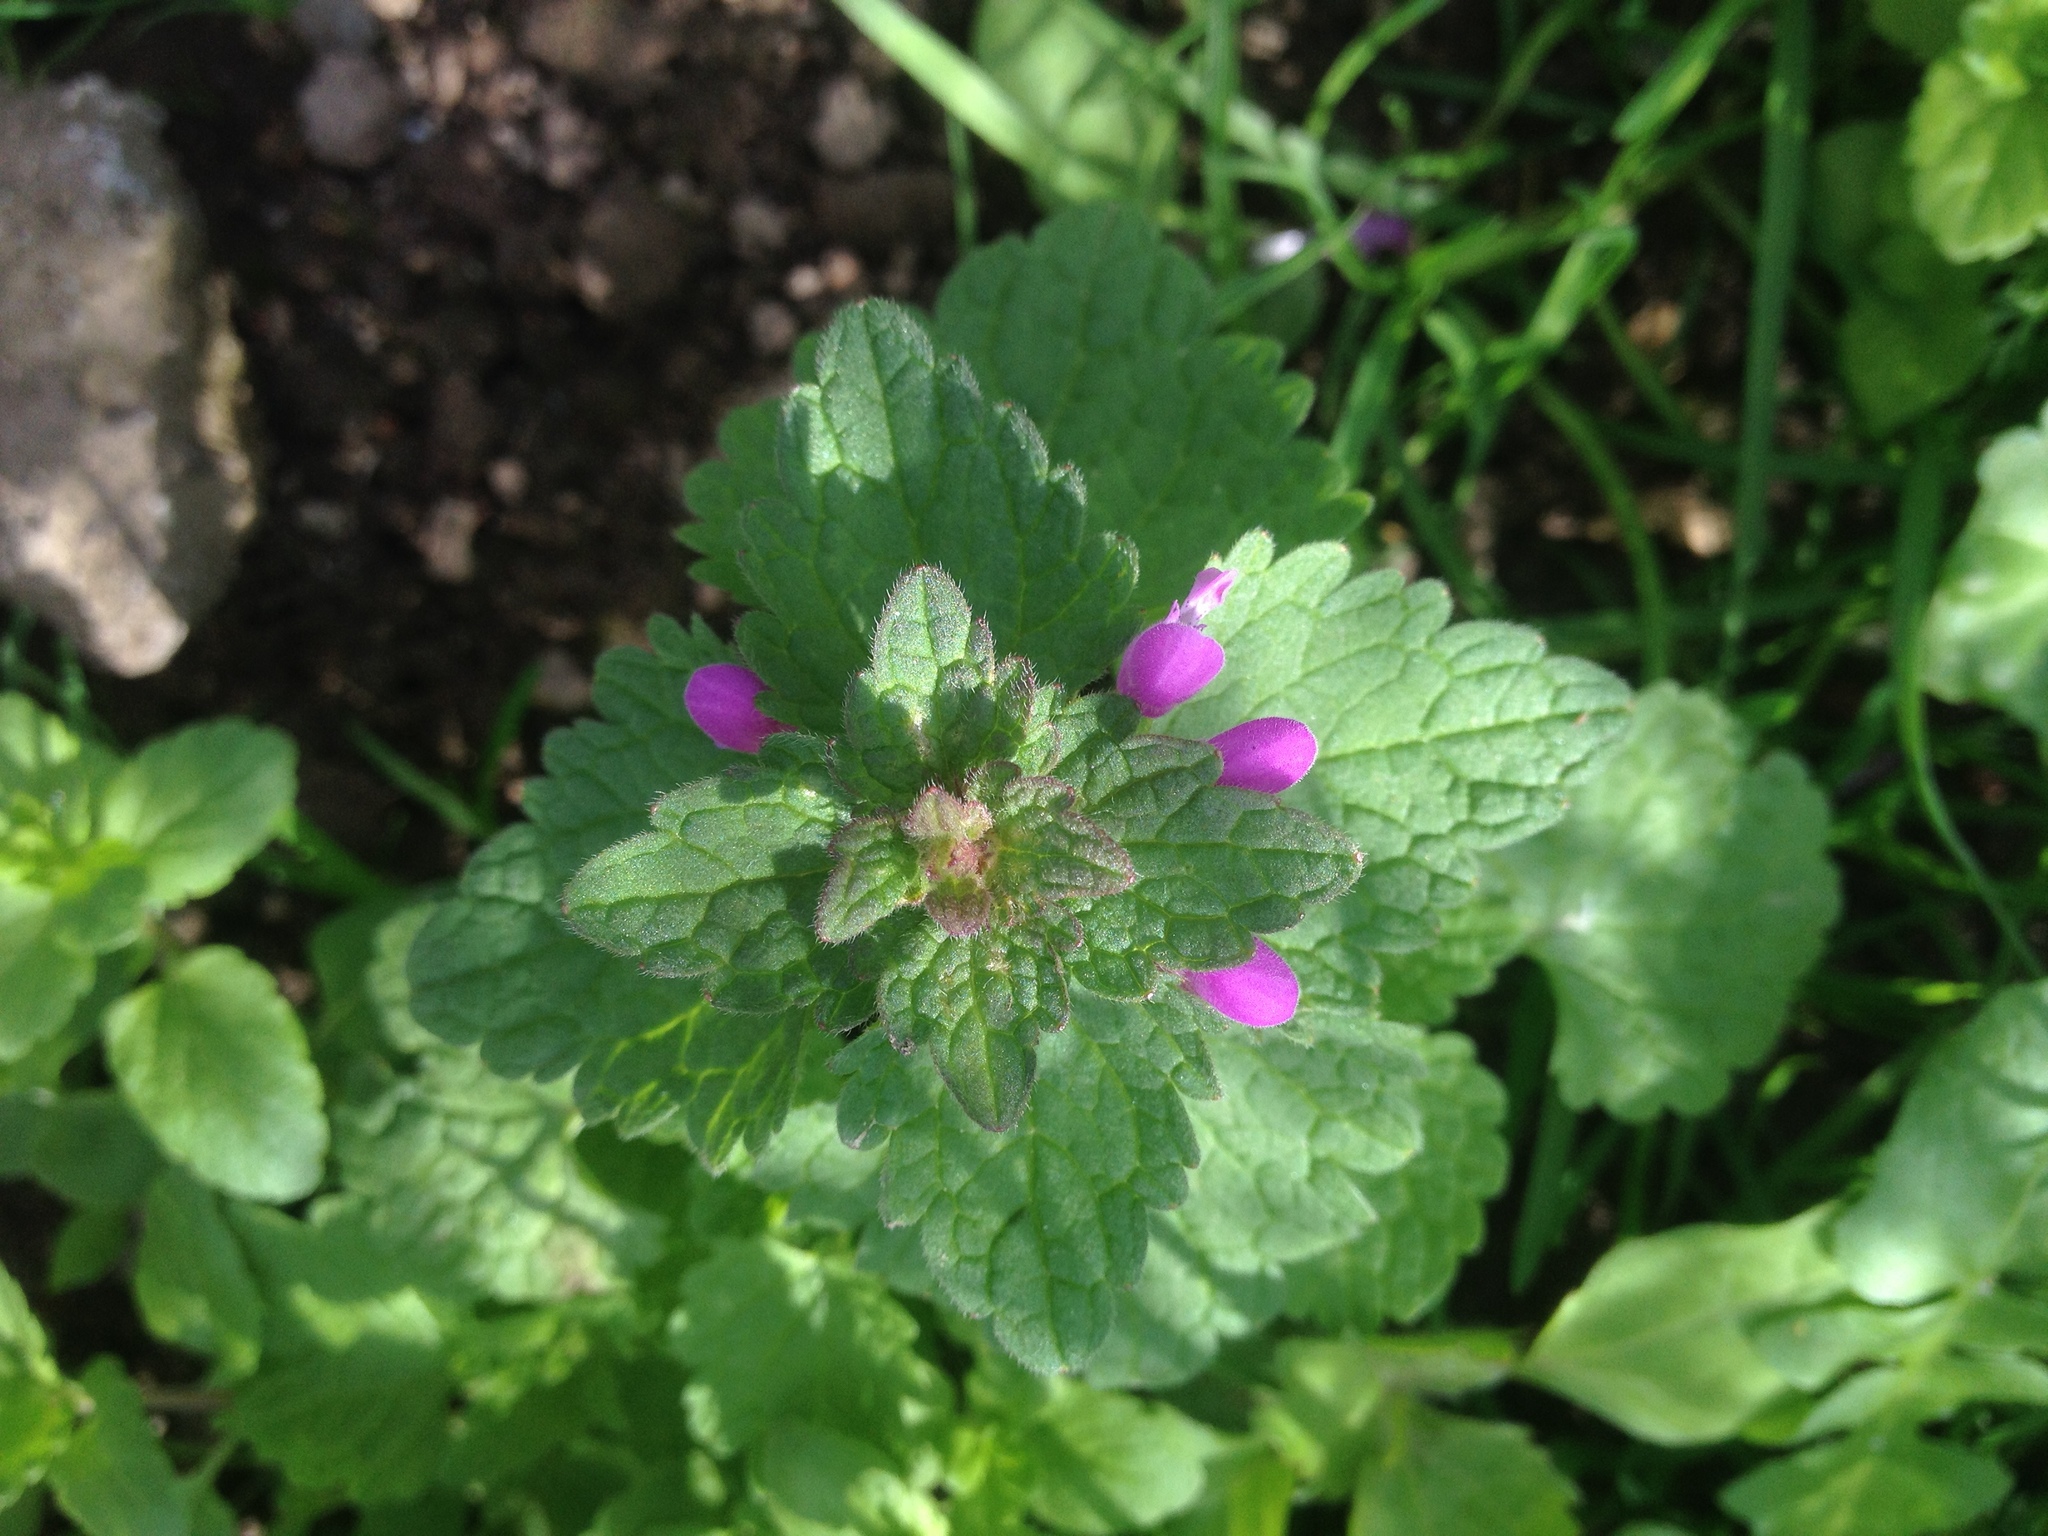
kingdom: Plantae
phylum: Tracheophyta
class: Magnoliopsida
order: Lamiales
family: Lamiaceae
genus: Lamium
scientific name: Lamium purpureum
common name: Red dead-nettle
